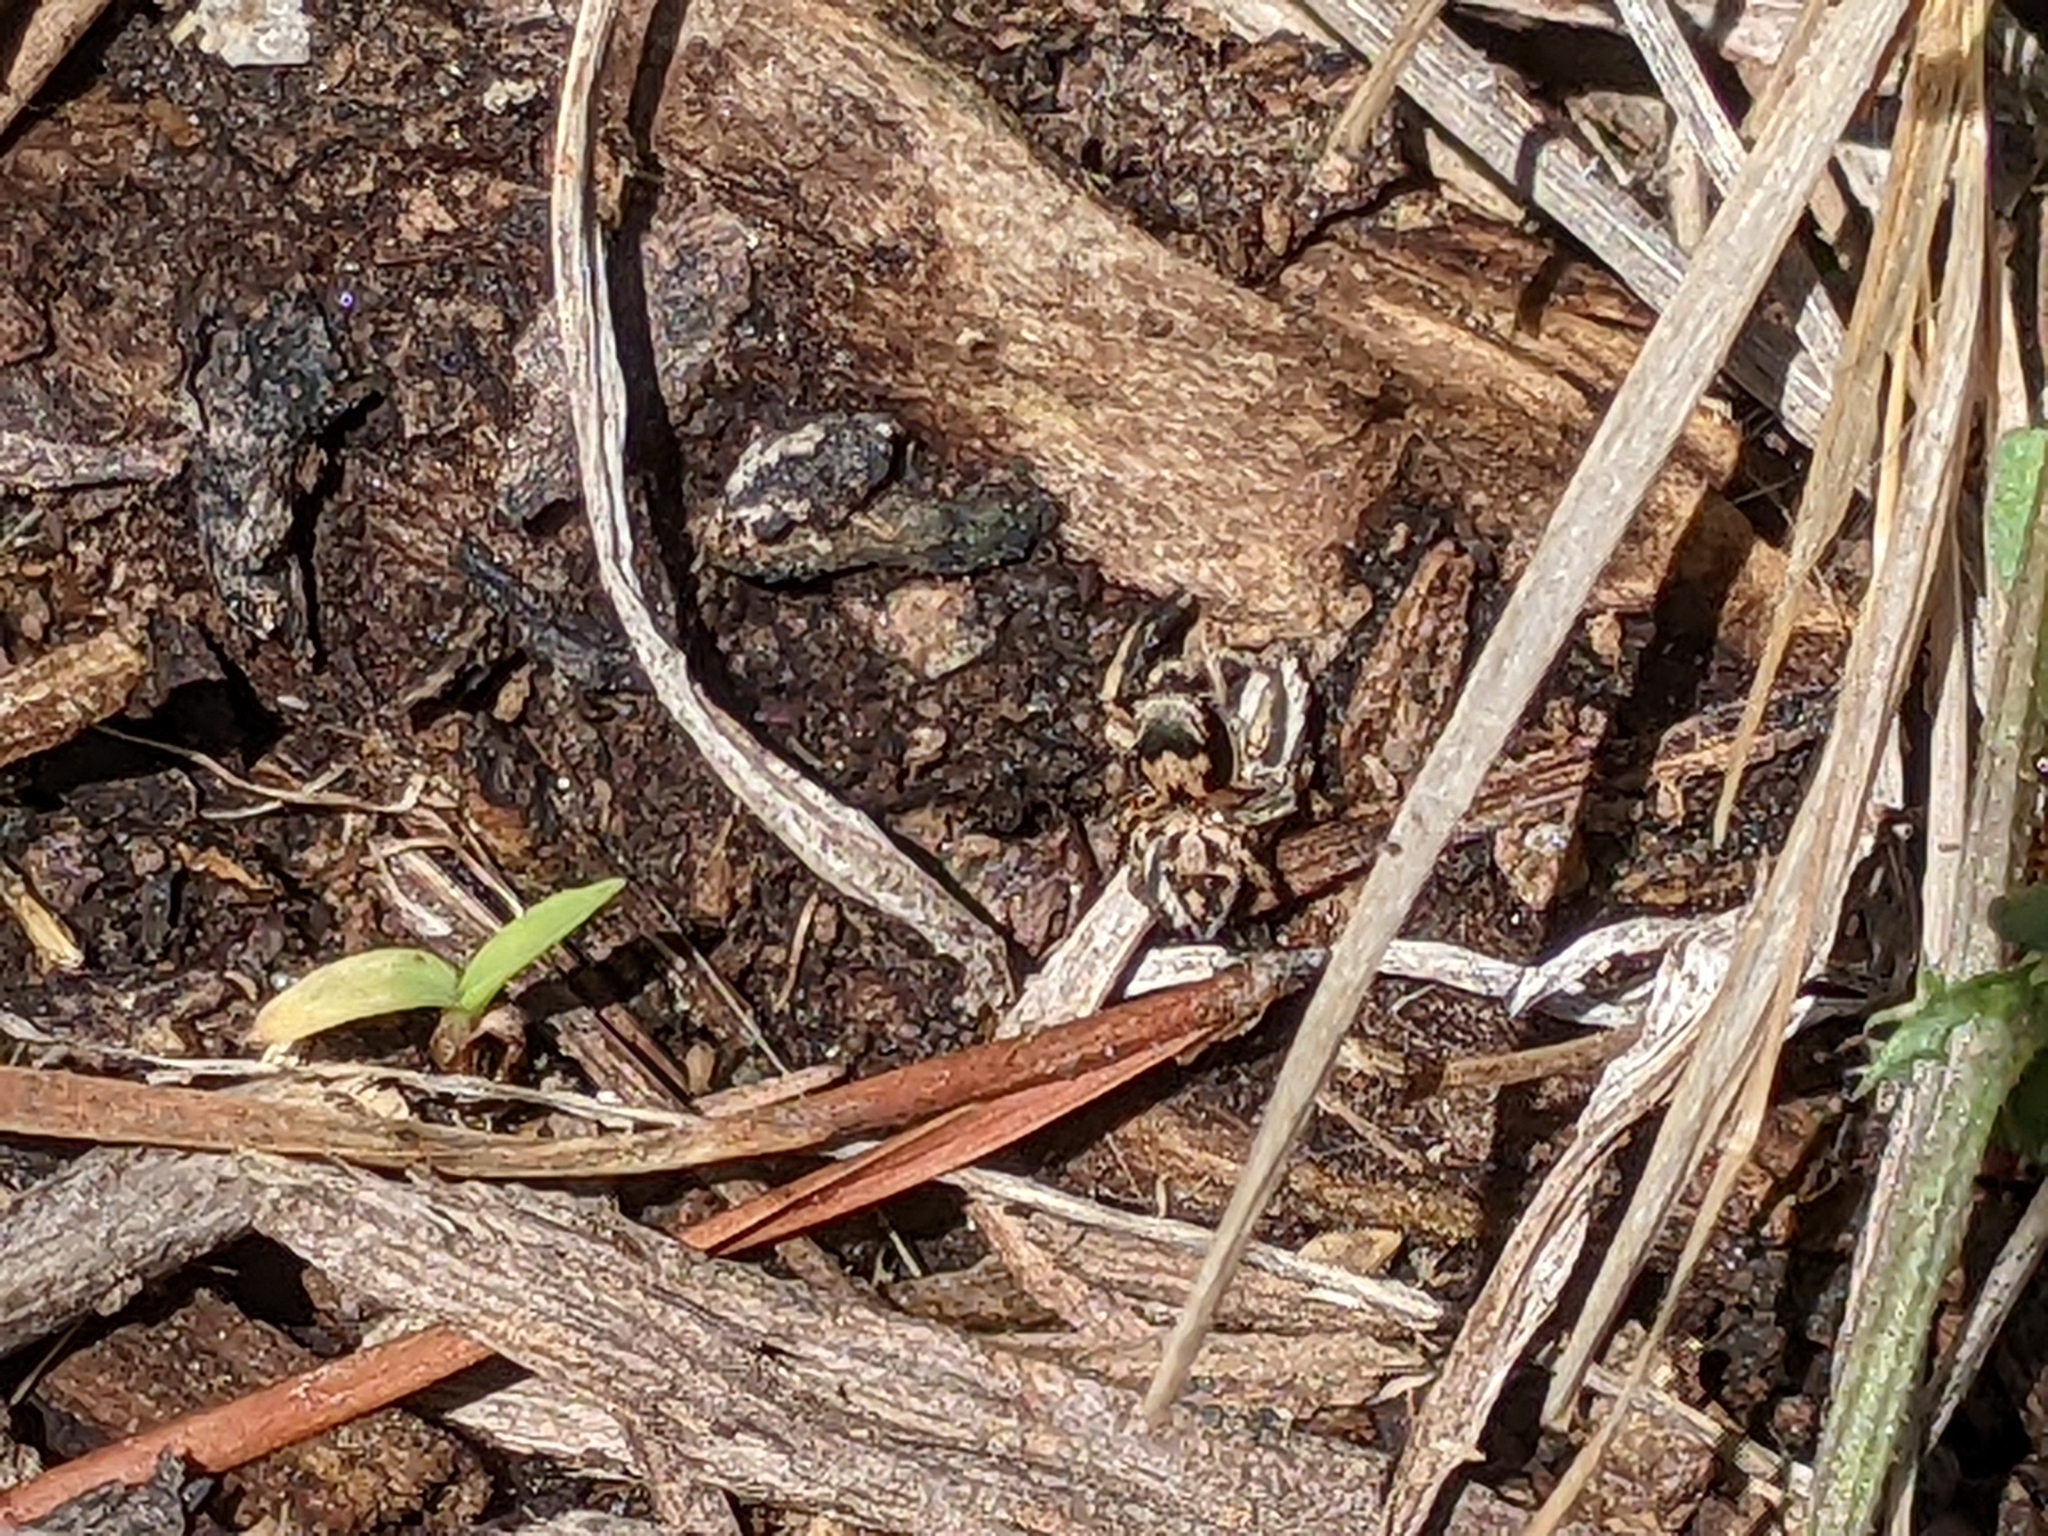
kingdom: Animalia
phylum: Arthropoda
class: Arachnida
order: Araneae
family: Salticidae
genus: Habronattus
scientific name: Habronattus coecatus
